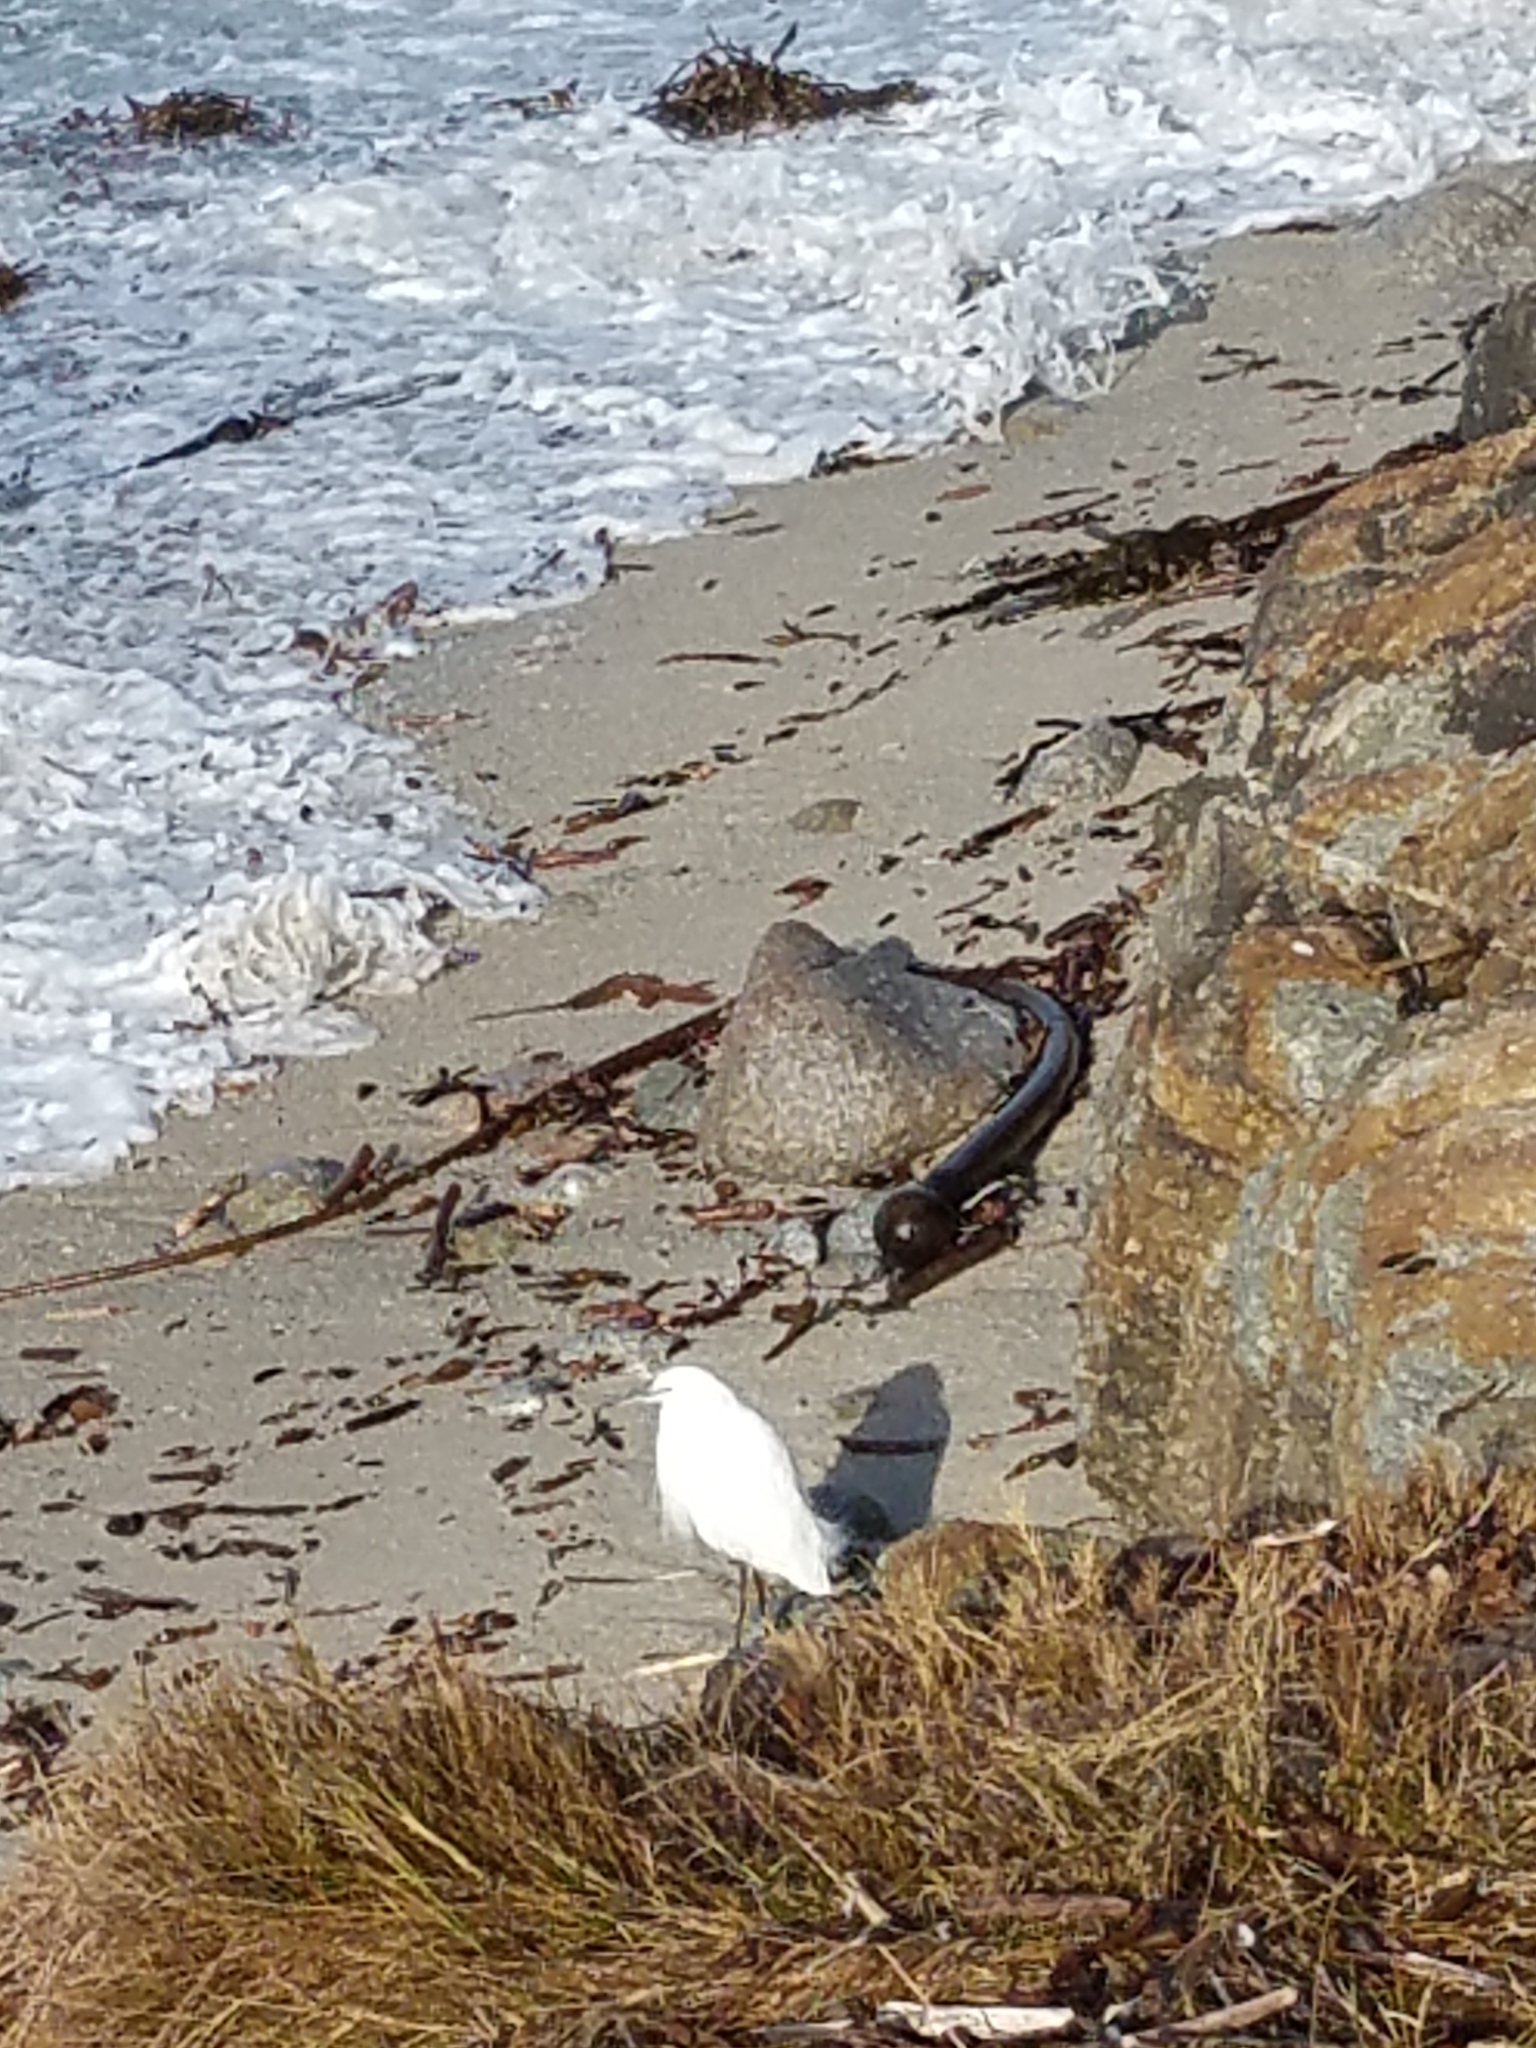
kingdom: Animalia
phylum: Chordata
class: Aves
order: Pelecaniformes
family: Ardeidae
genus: Egretta
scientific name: Egretta thula
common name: Snowy egret
